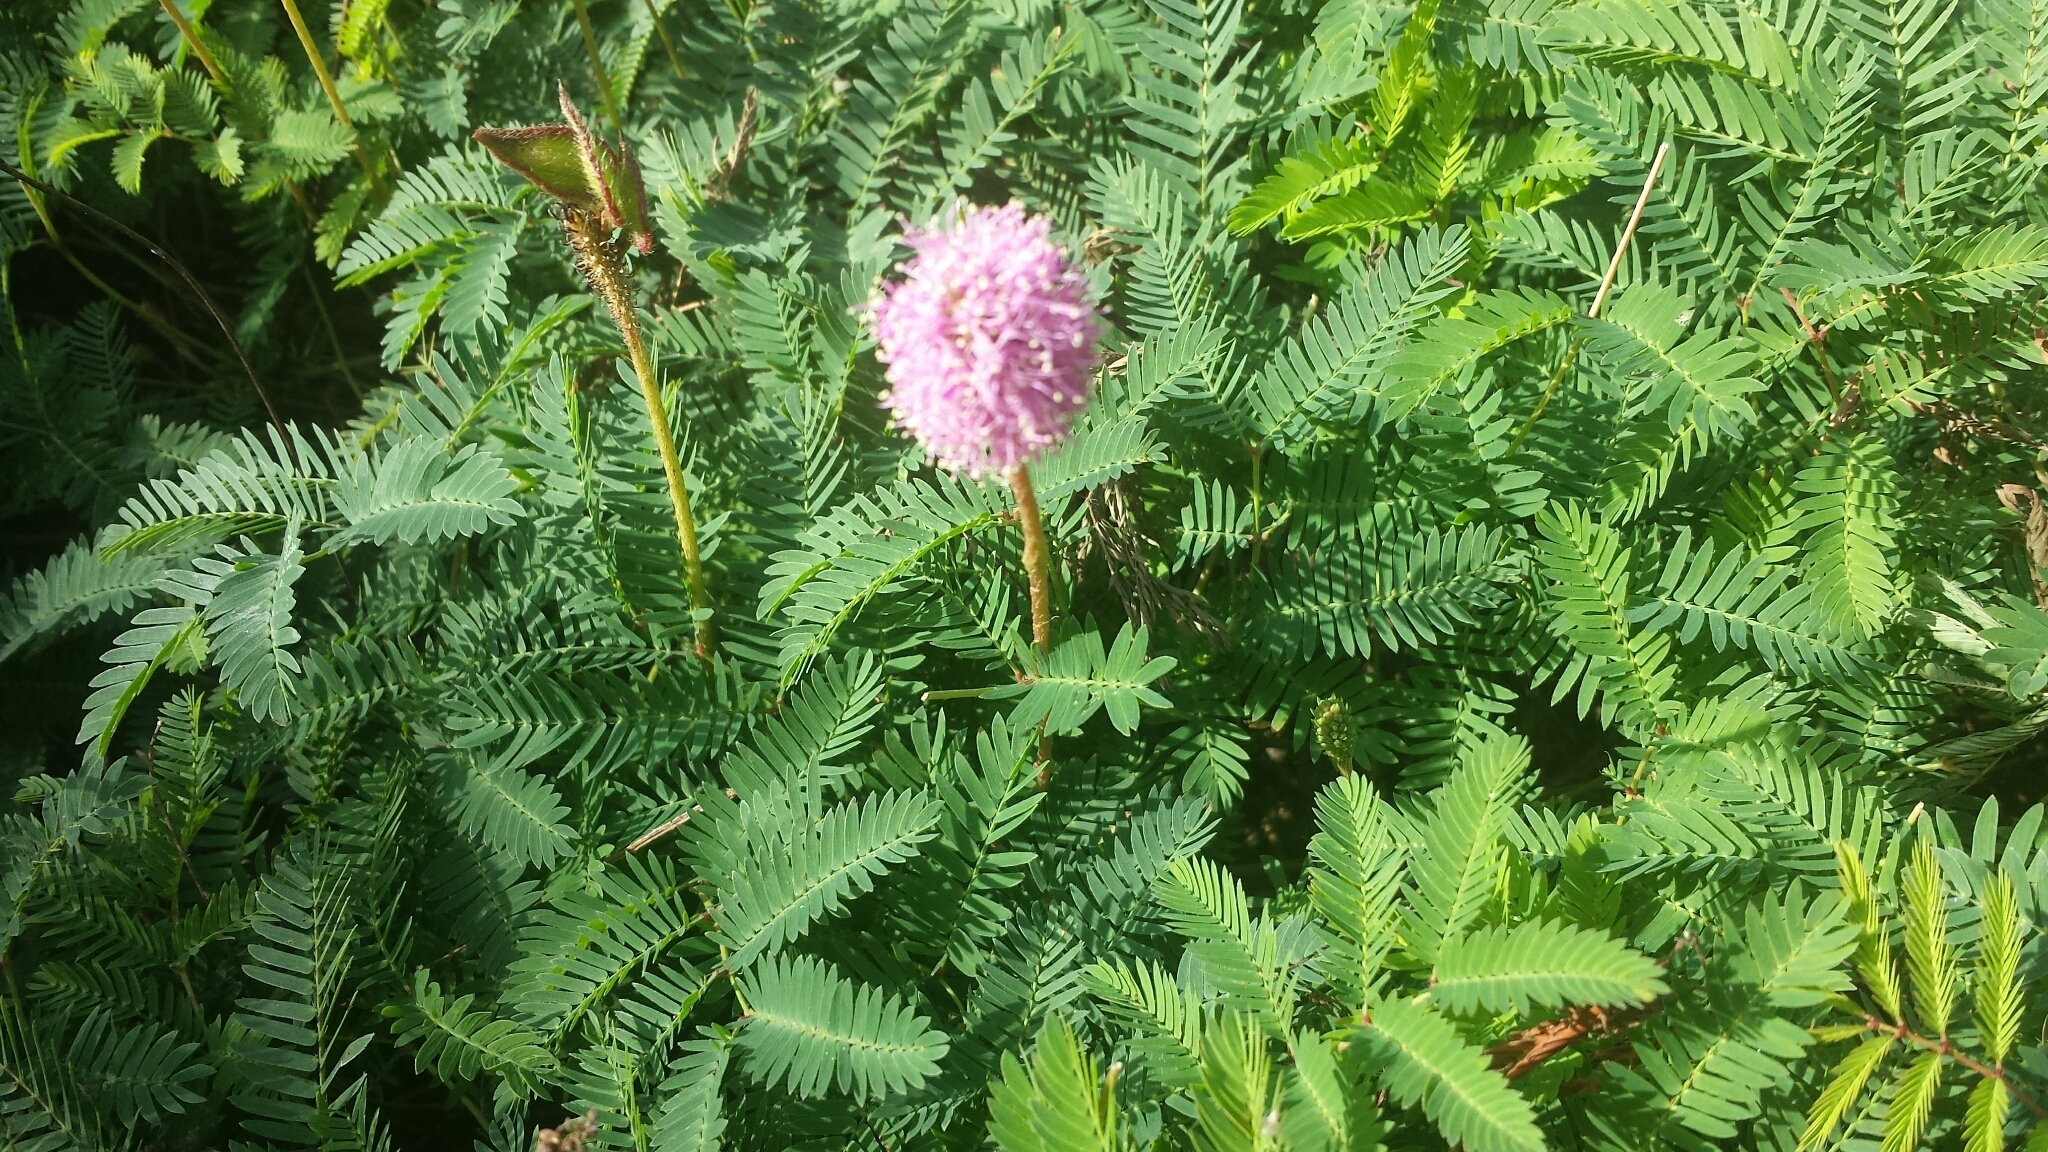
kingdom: Plantae
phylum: Tracheophyta
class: Magnoliopsida
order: Fabales
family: Fabaceae
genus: Mimosa
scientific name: Mimosa strigillosa
